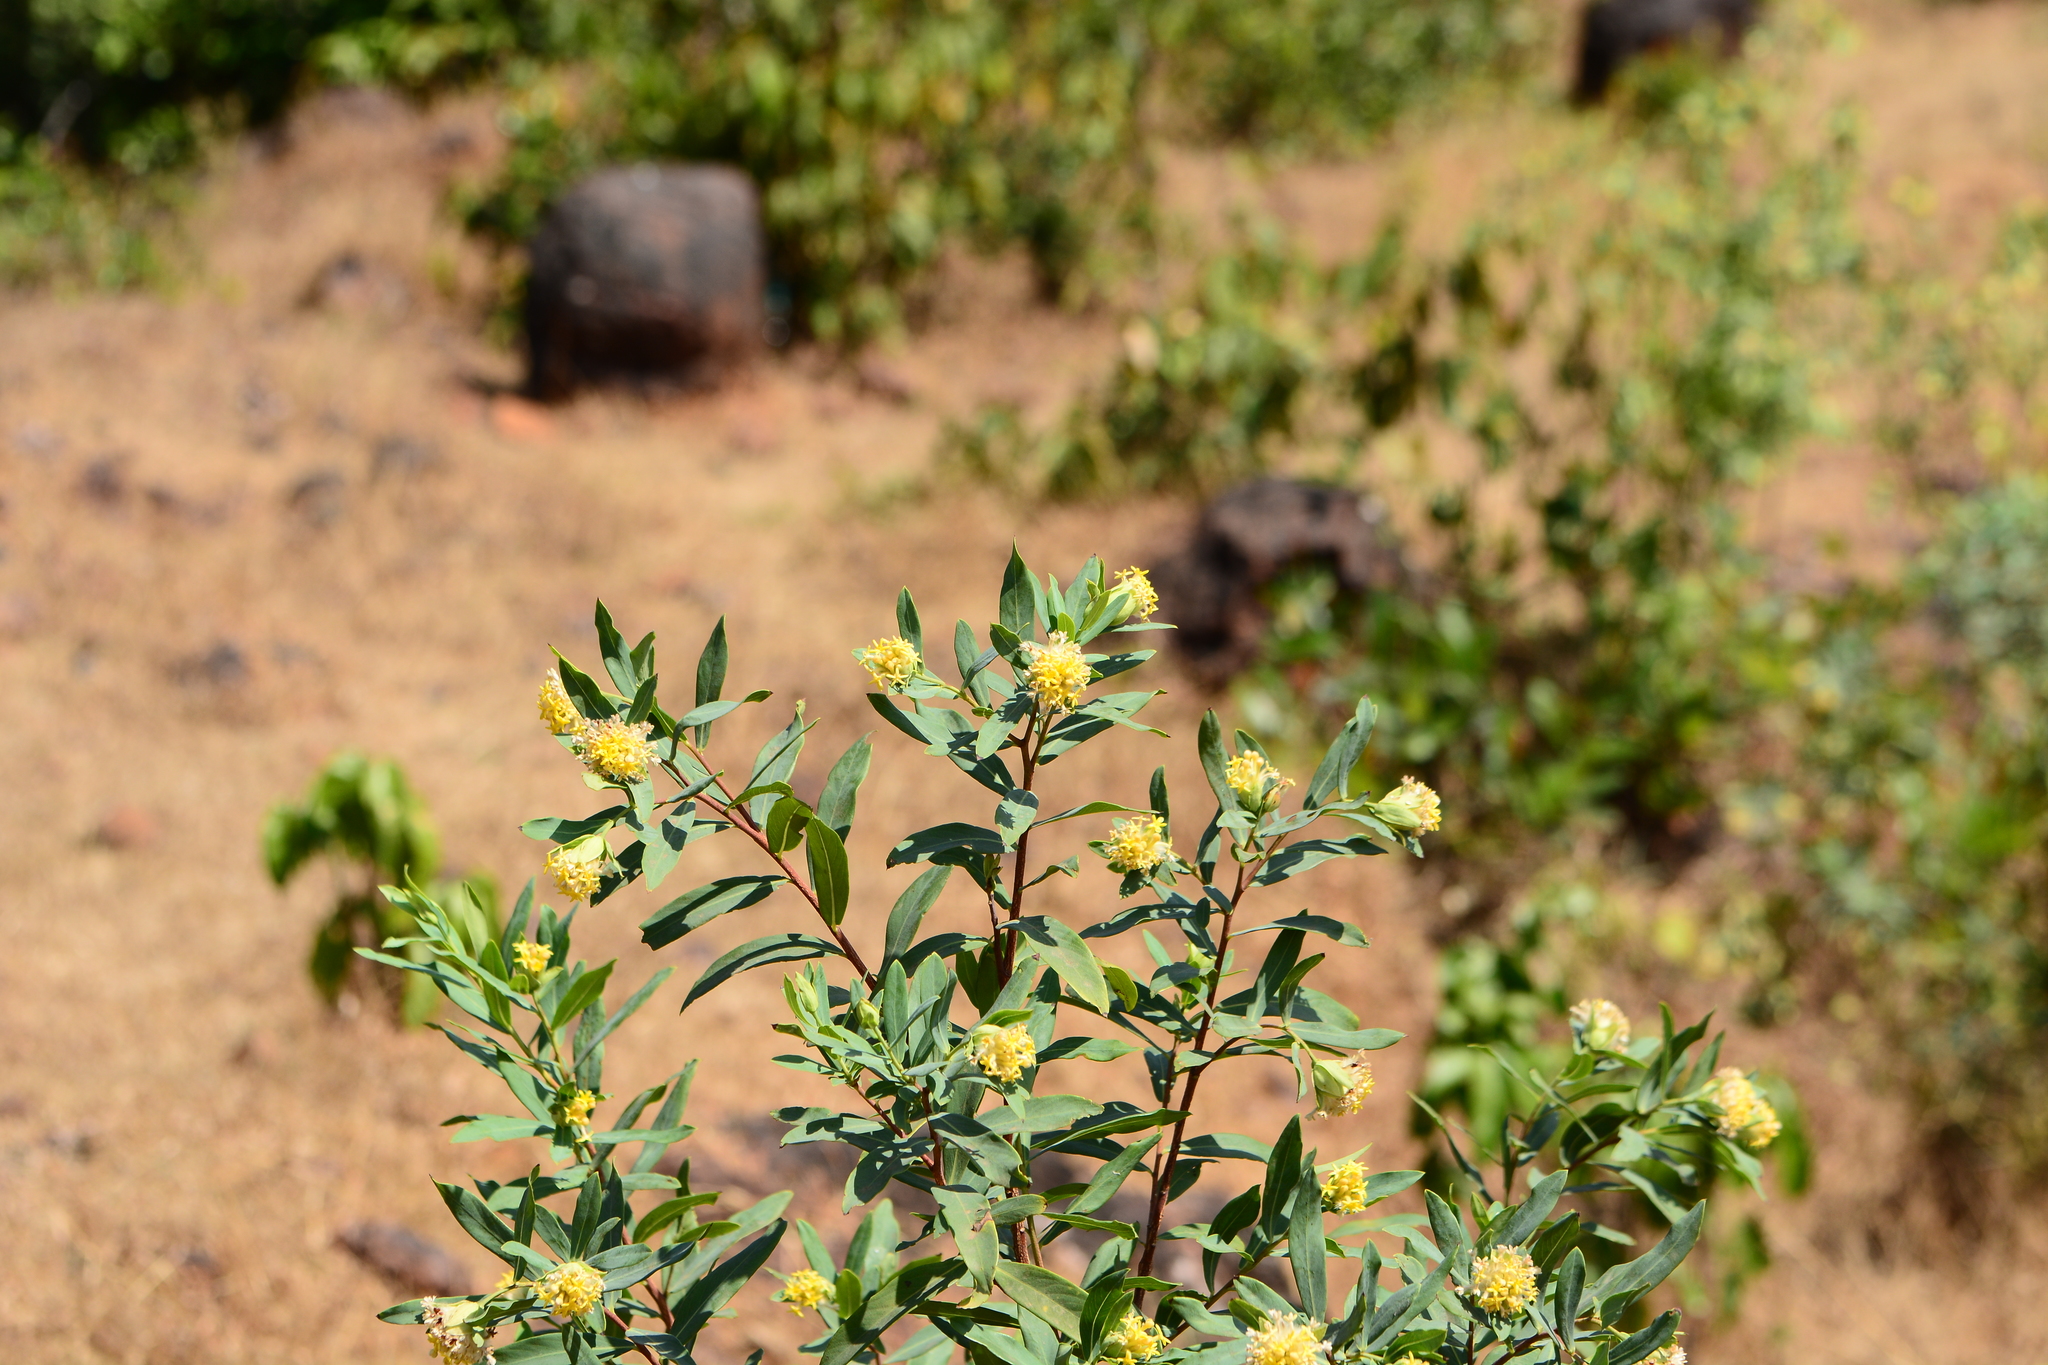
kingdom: Plantae
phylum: Tracheophyta
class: Magnoliopsida
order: Malvales
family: Thymelaeaceae
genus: Gnidia
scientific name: Gnidia glauca
